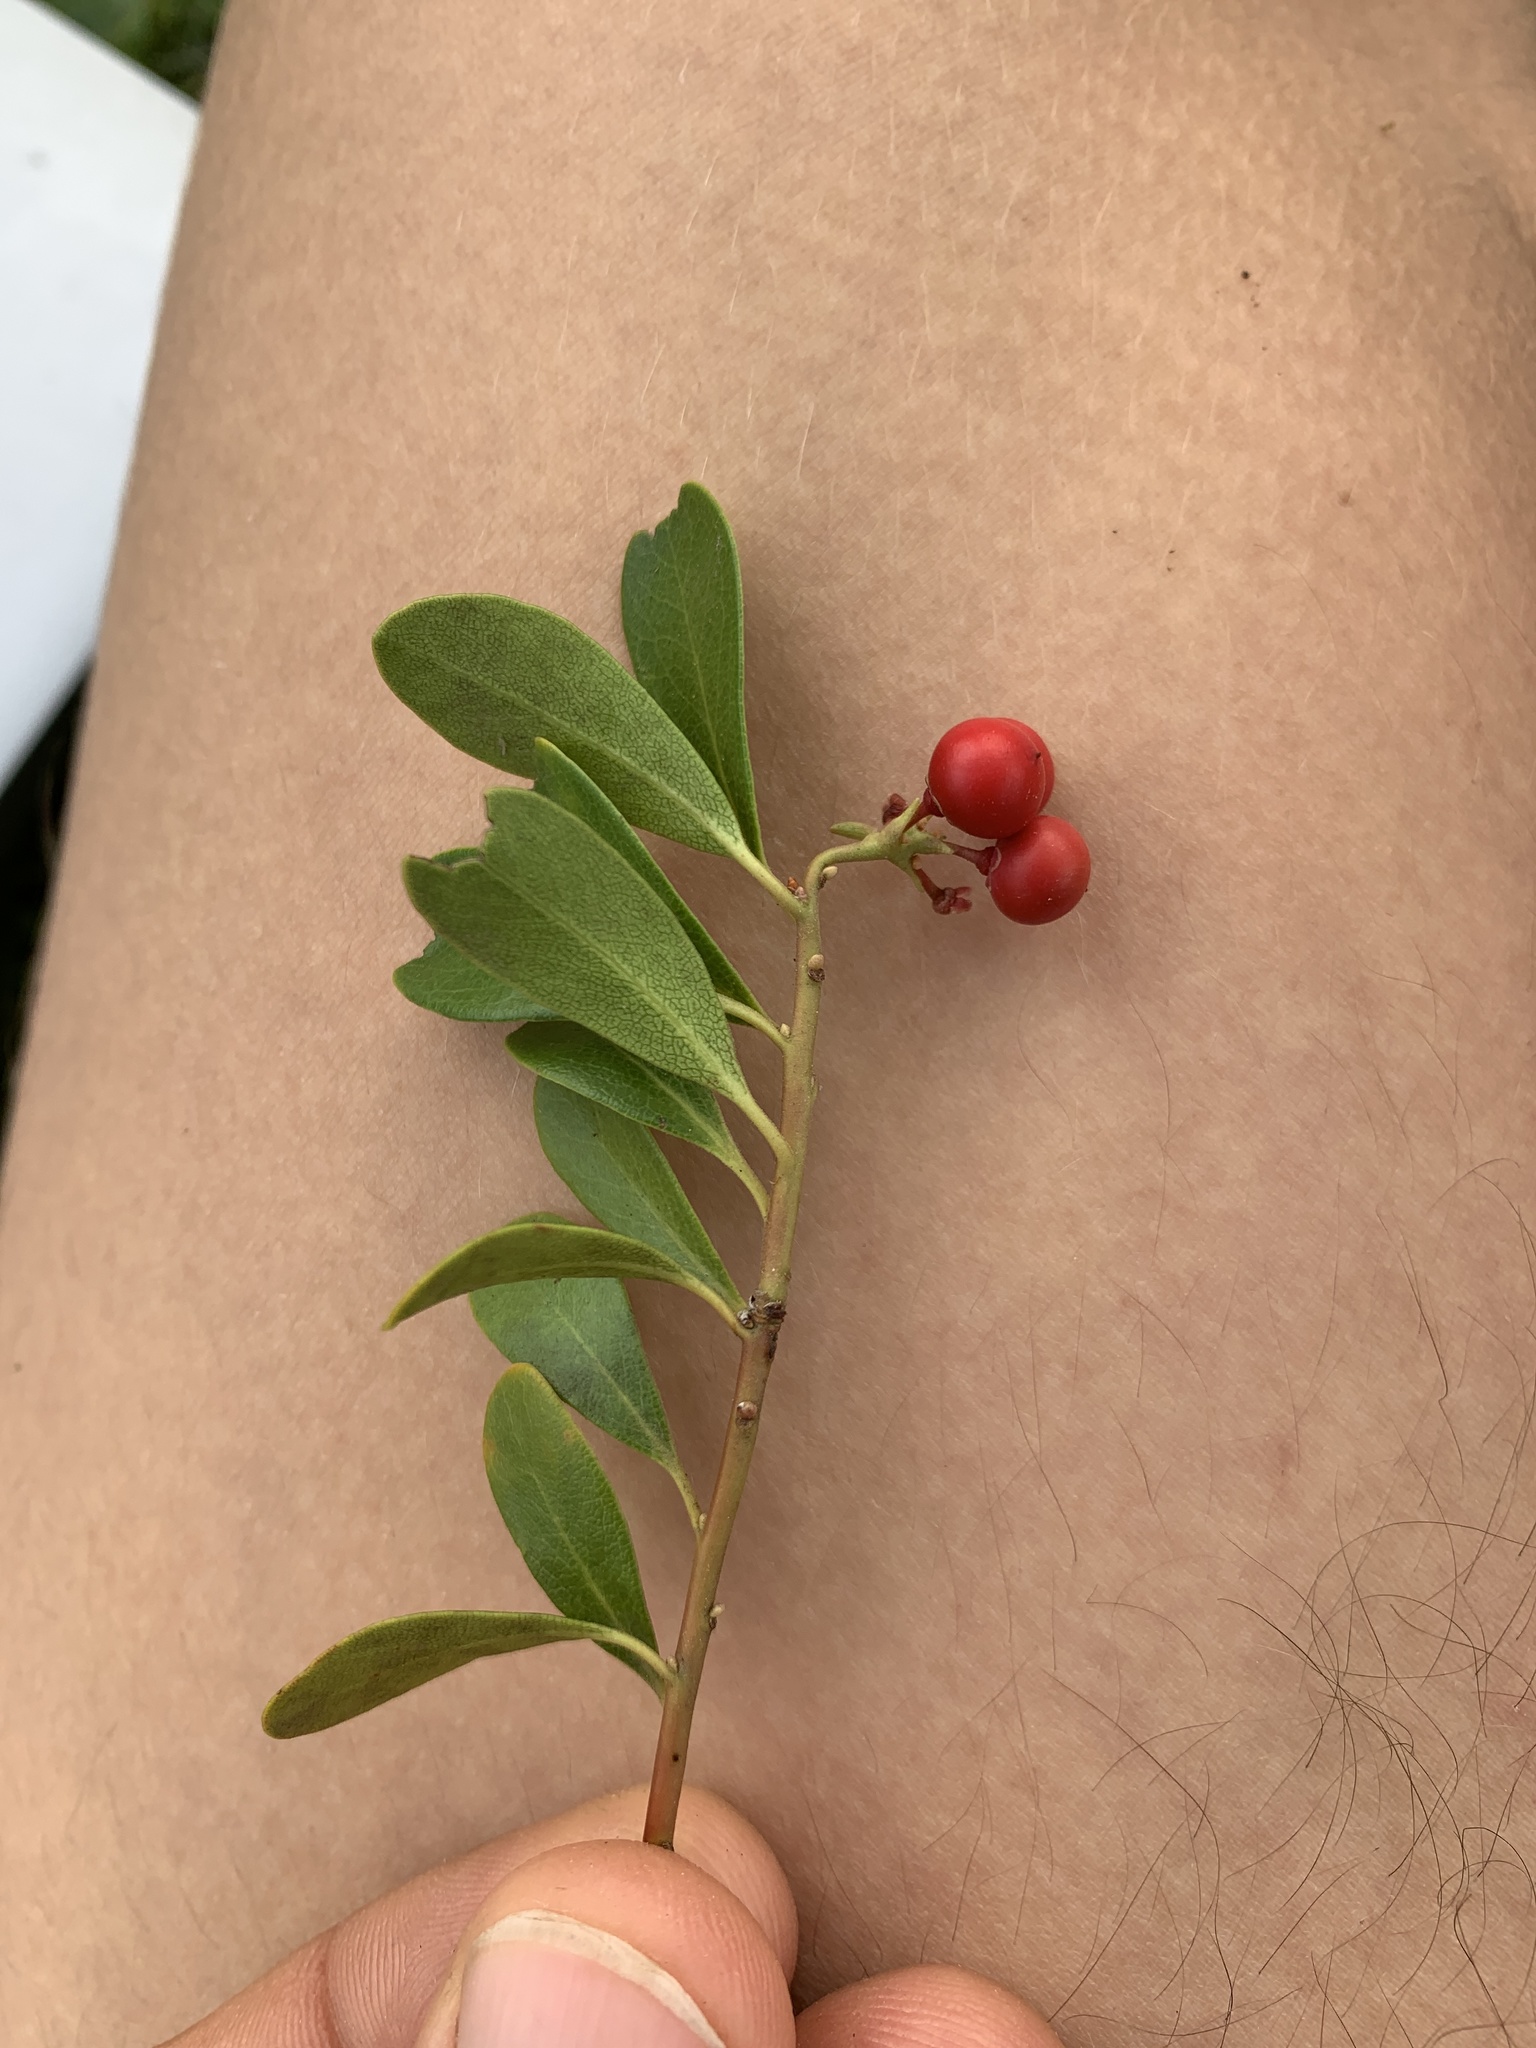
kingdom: Plantae
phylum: Tracheophyta
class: Magnoliopsida
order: Ericales
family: Ericaceae
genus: Arctostaphylos
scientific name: Arctostaphylos uva-ursi
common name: Bearberry
